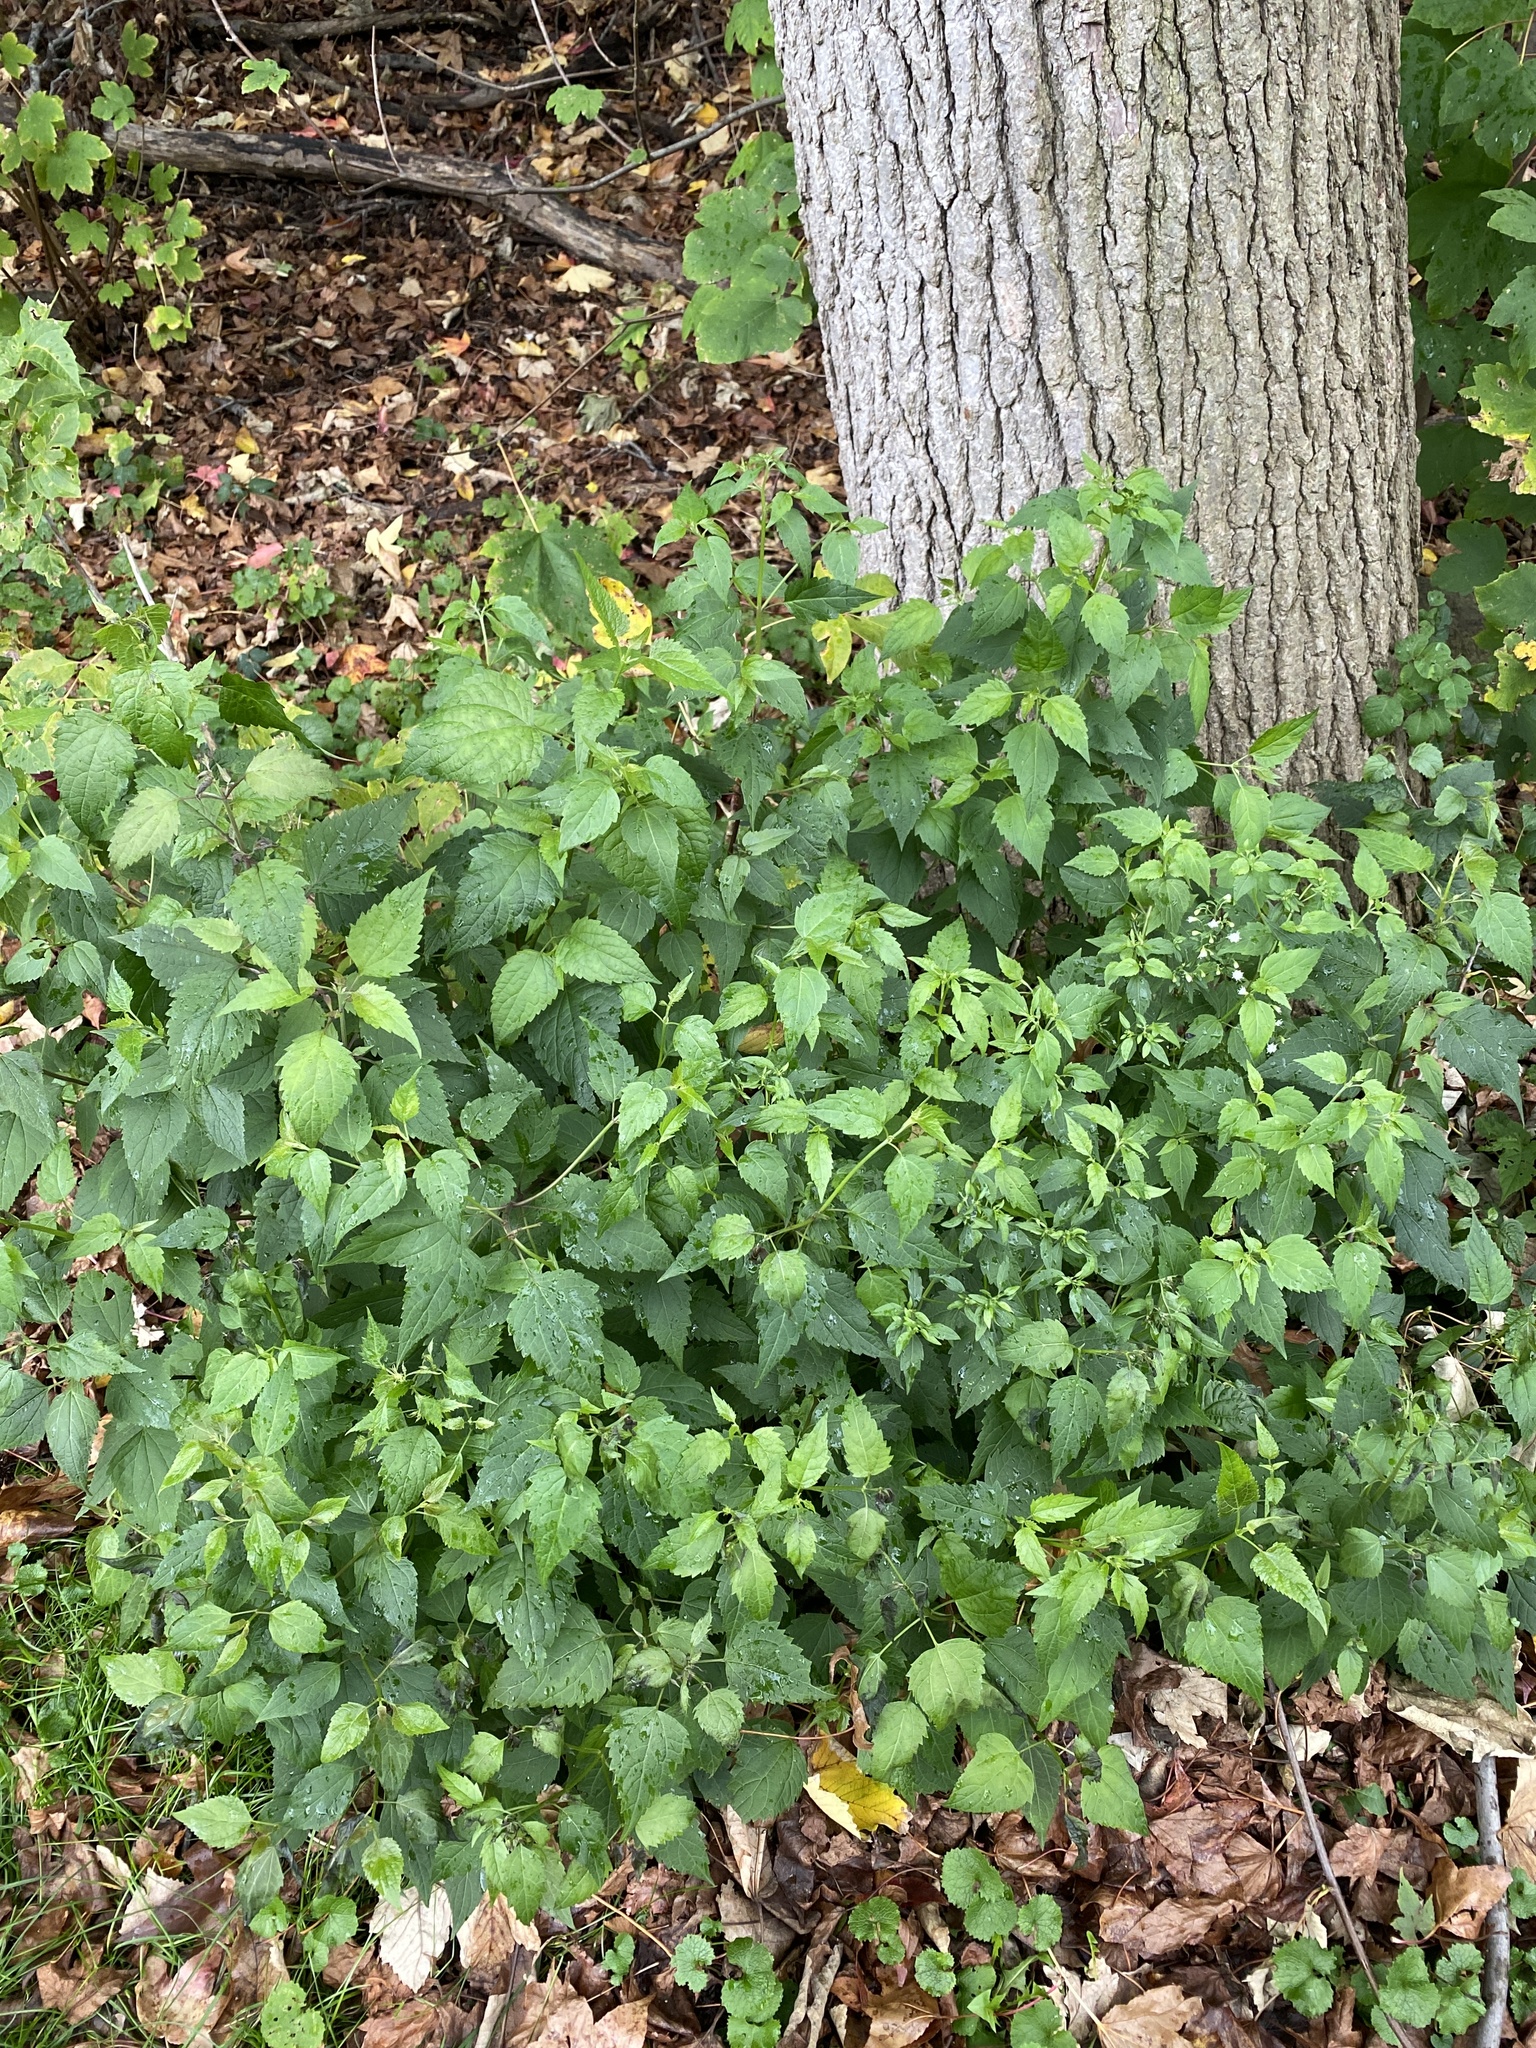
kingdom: Plantae
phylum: Tracheophyta
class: Magnoliopsida
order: Asterales
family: Asteraceae
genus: Ageratina
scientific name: Ageratina altissima
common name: White snakeroot
